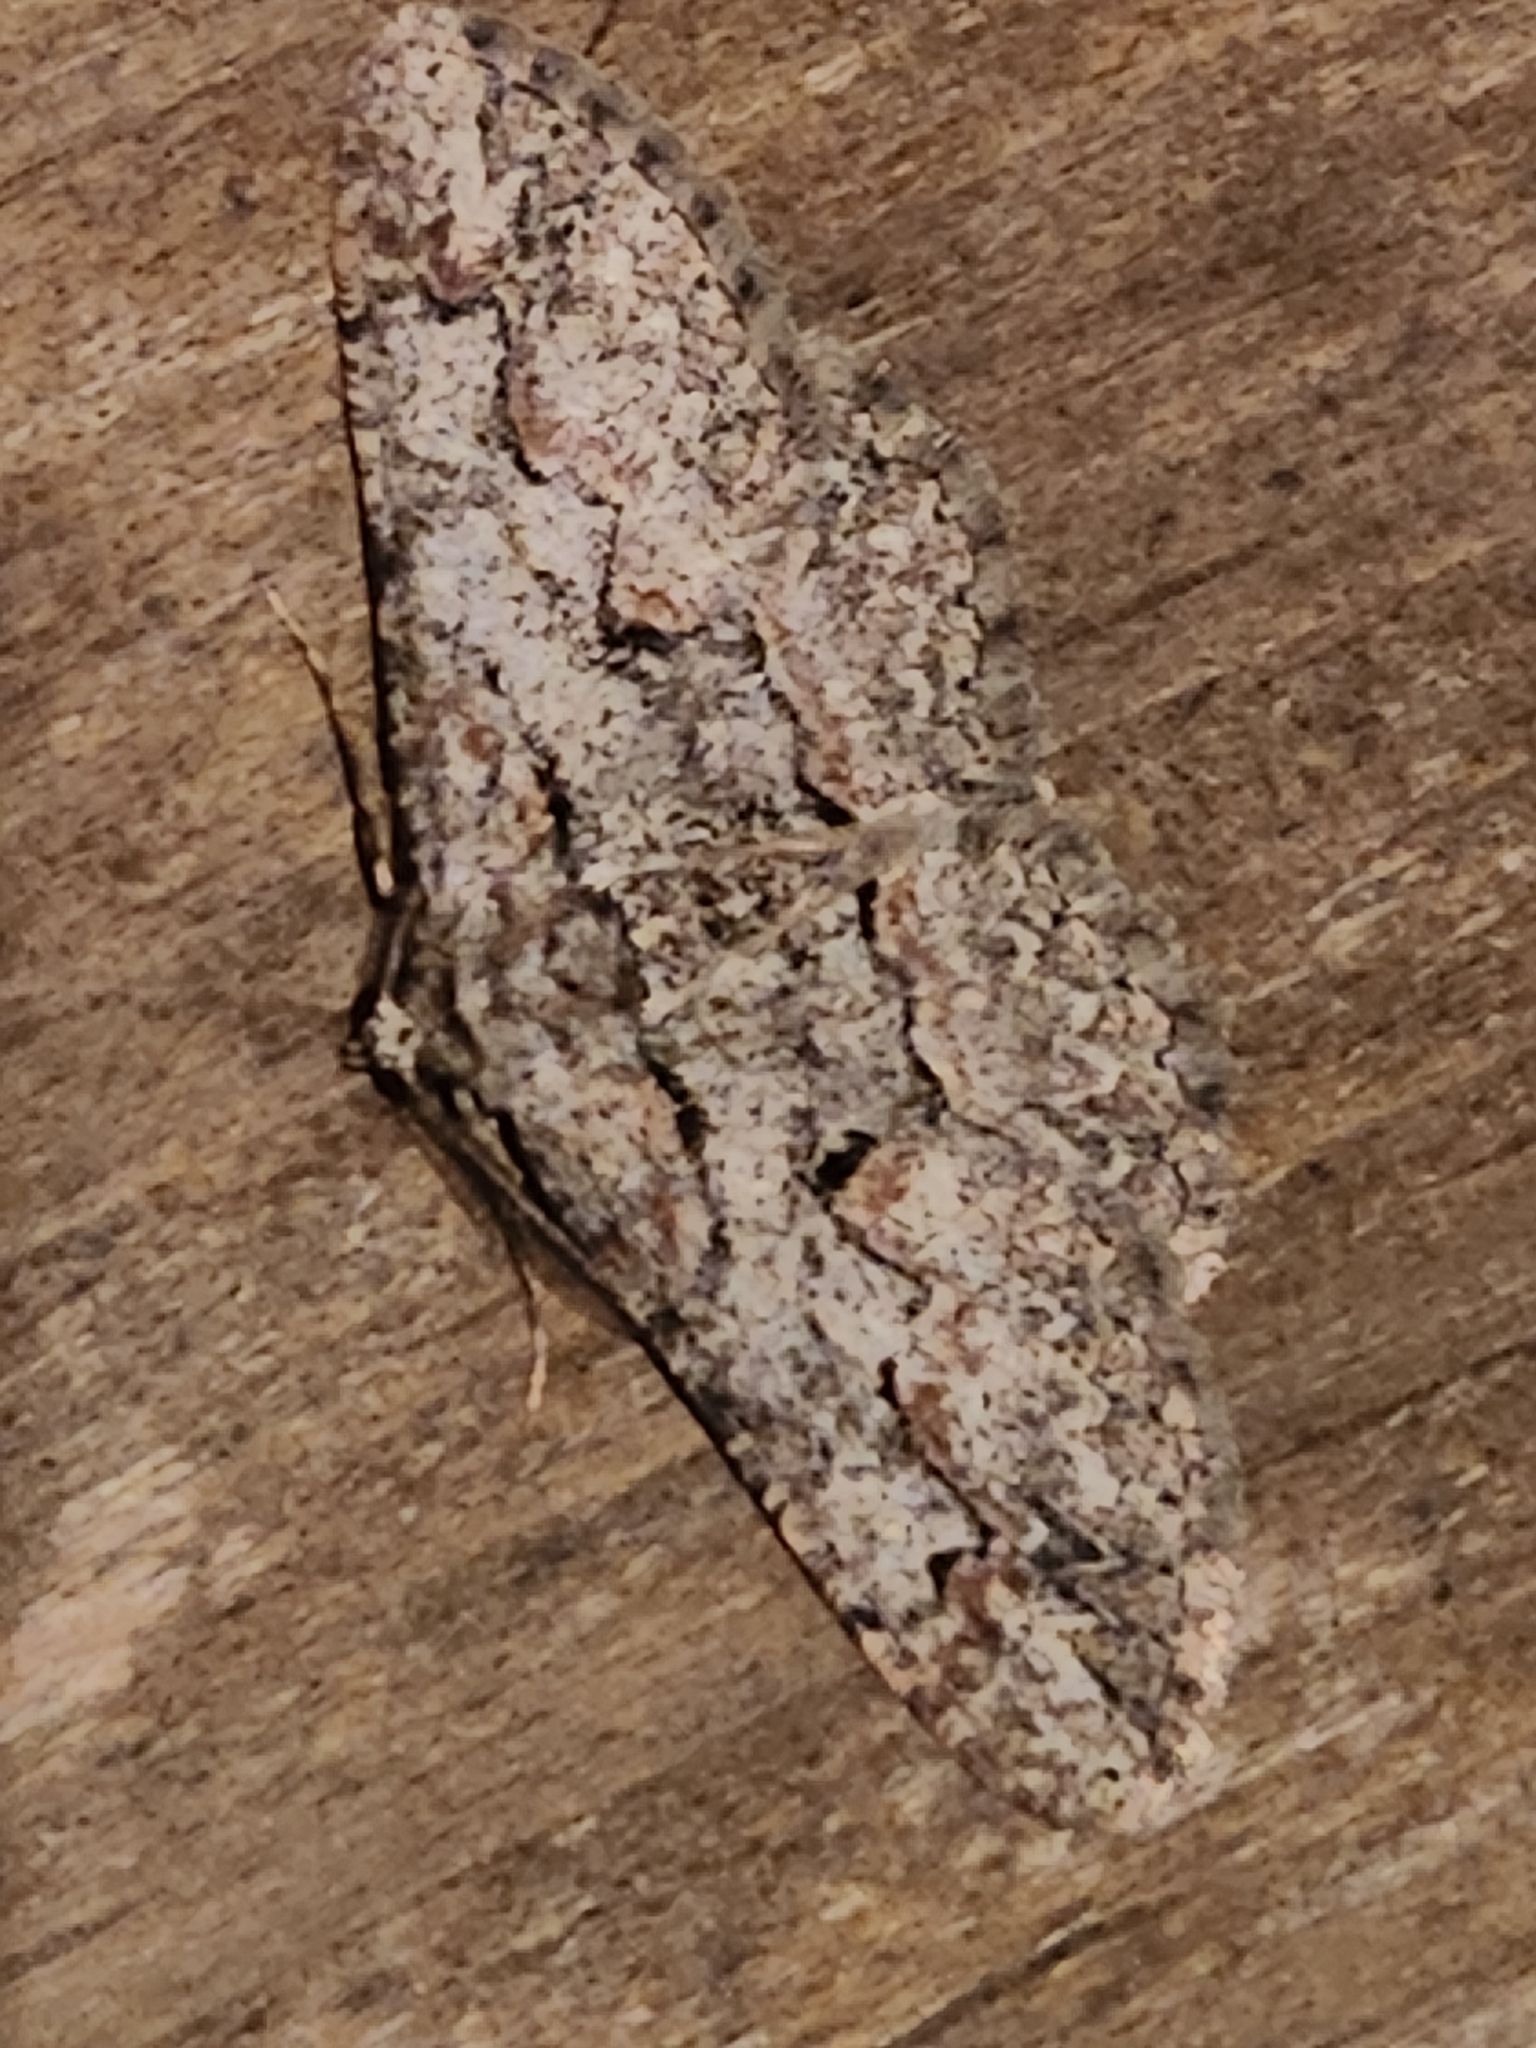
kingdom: Animalia
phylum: Arthropoda
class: Insecta
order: Lepidoptera
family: Geometridae
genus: Iridopsis
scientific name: Iridopsis defectaria
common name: Brown-shaded gray
